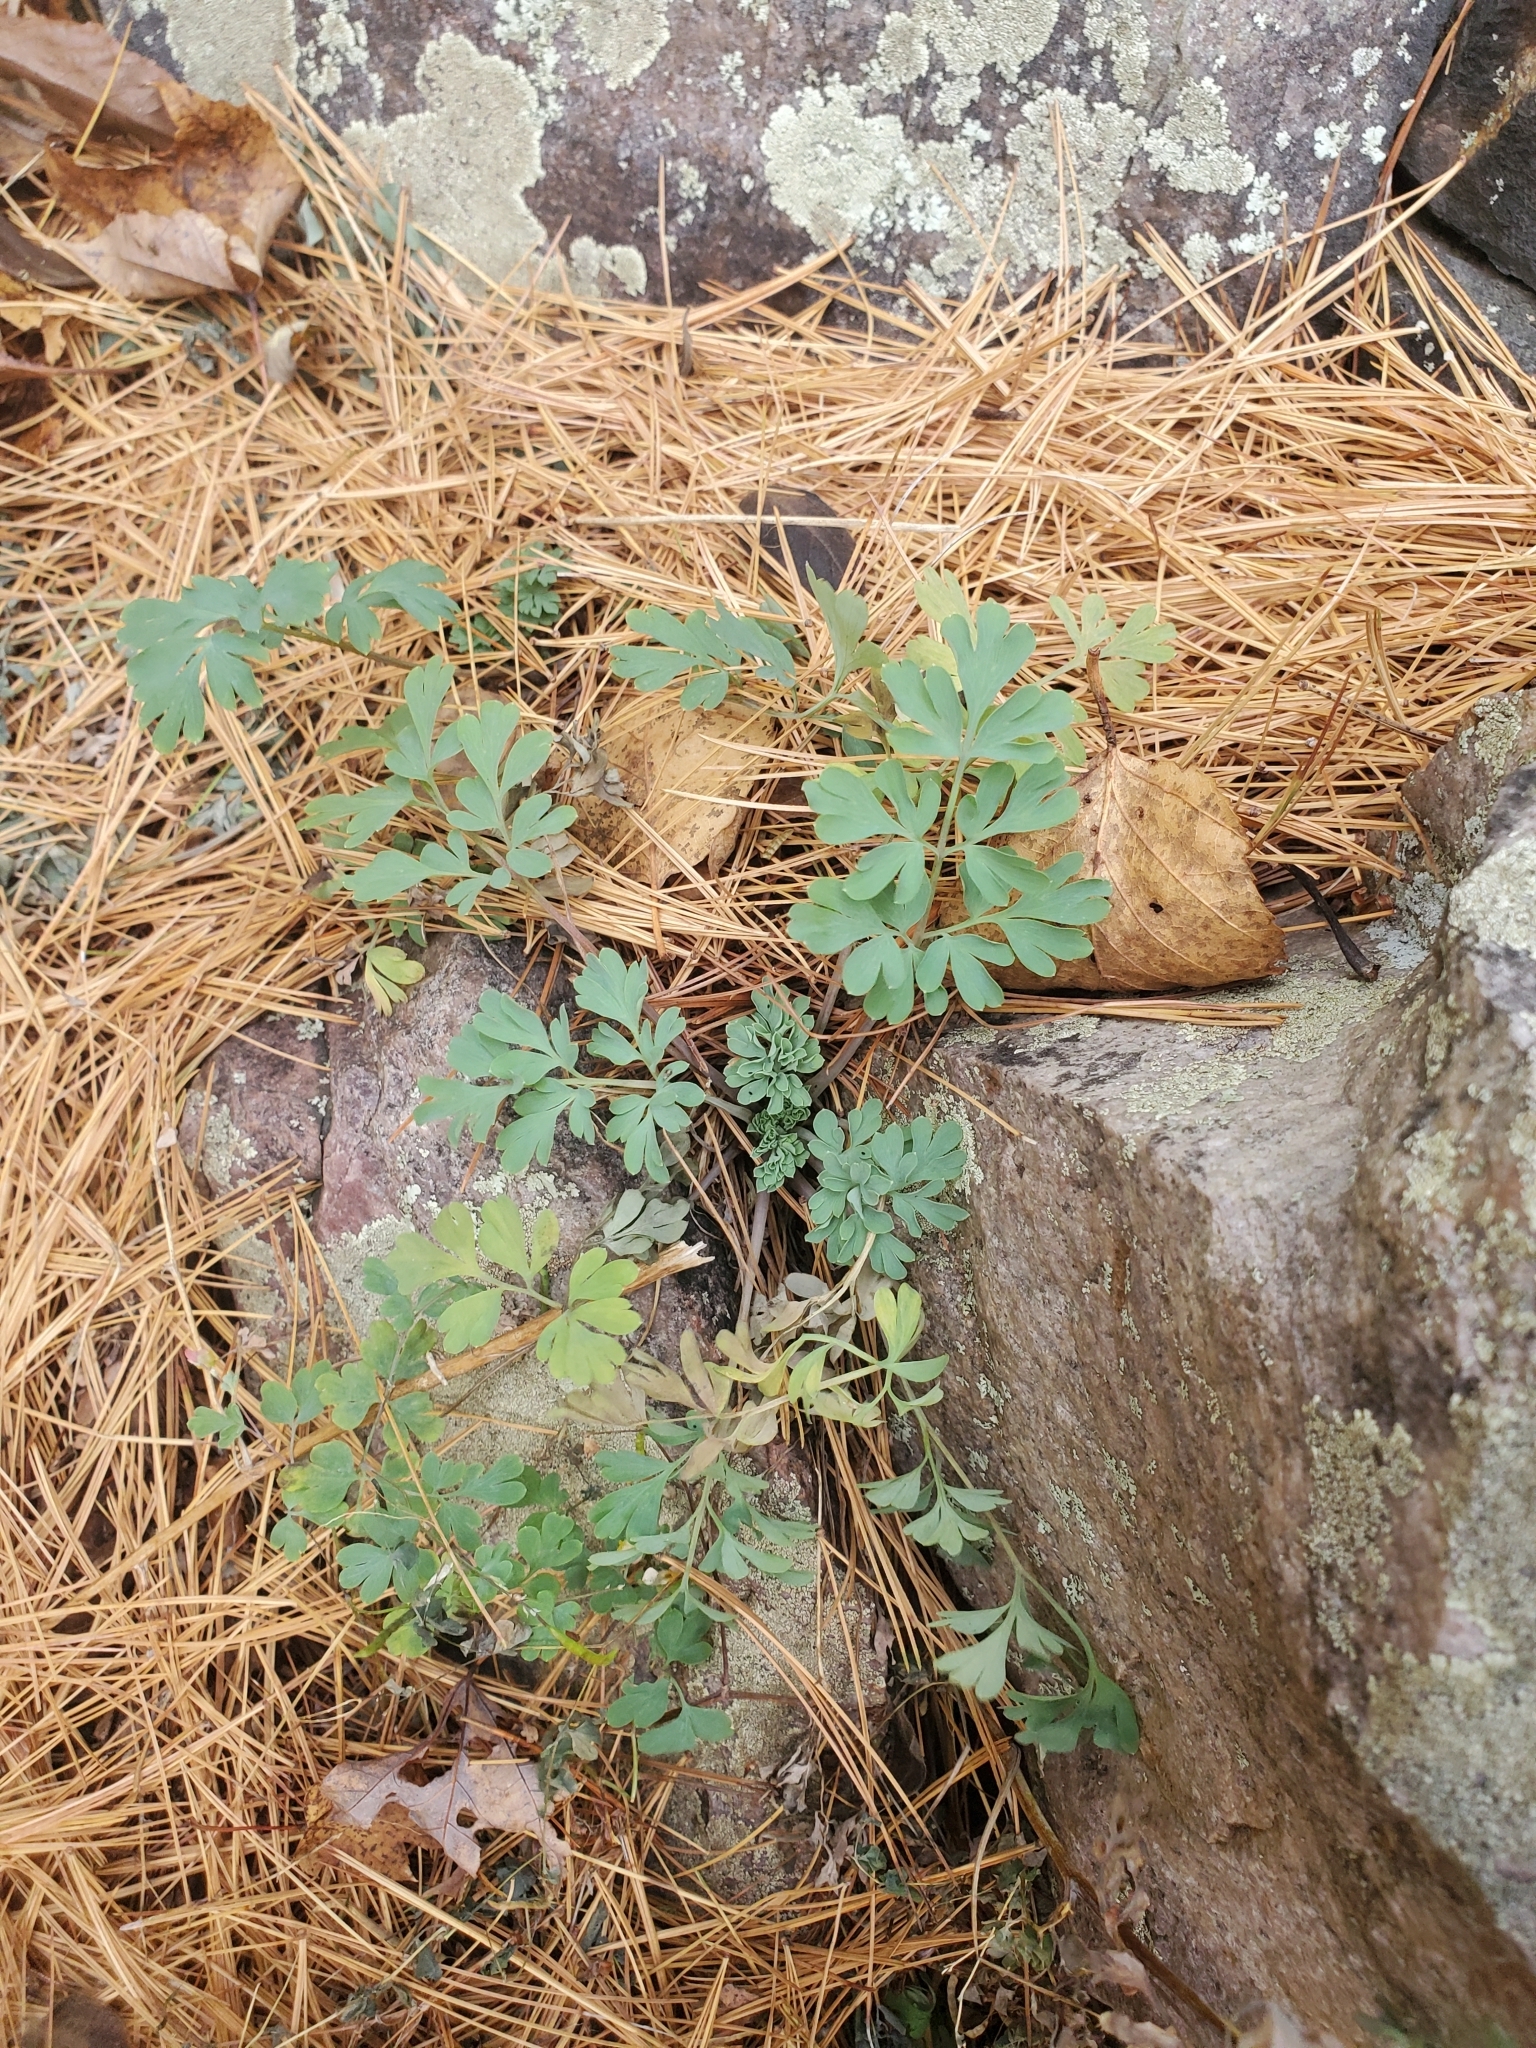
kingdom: Plantae
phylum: Tracheophyta
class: Magnoliopsida
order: Ranunculales
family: Papaveraceae
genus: Capnoides
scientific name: Capnoides sempervirens
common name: Rock harlequin
